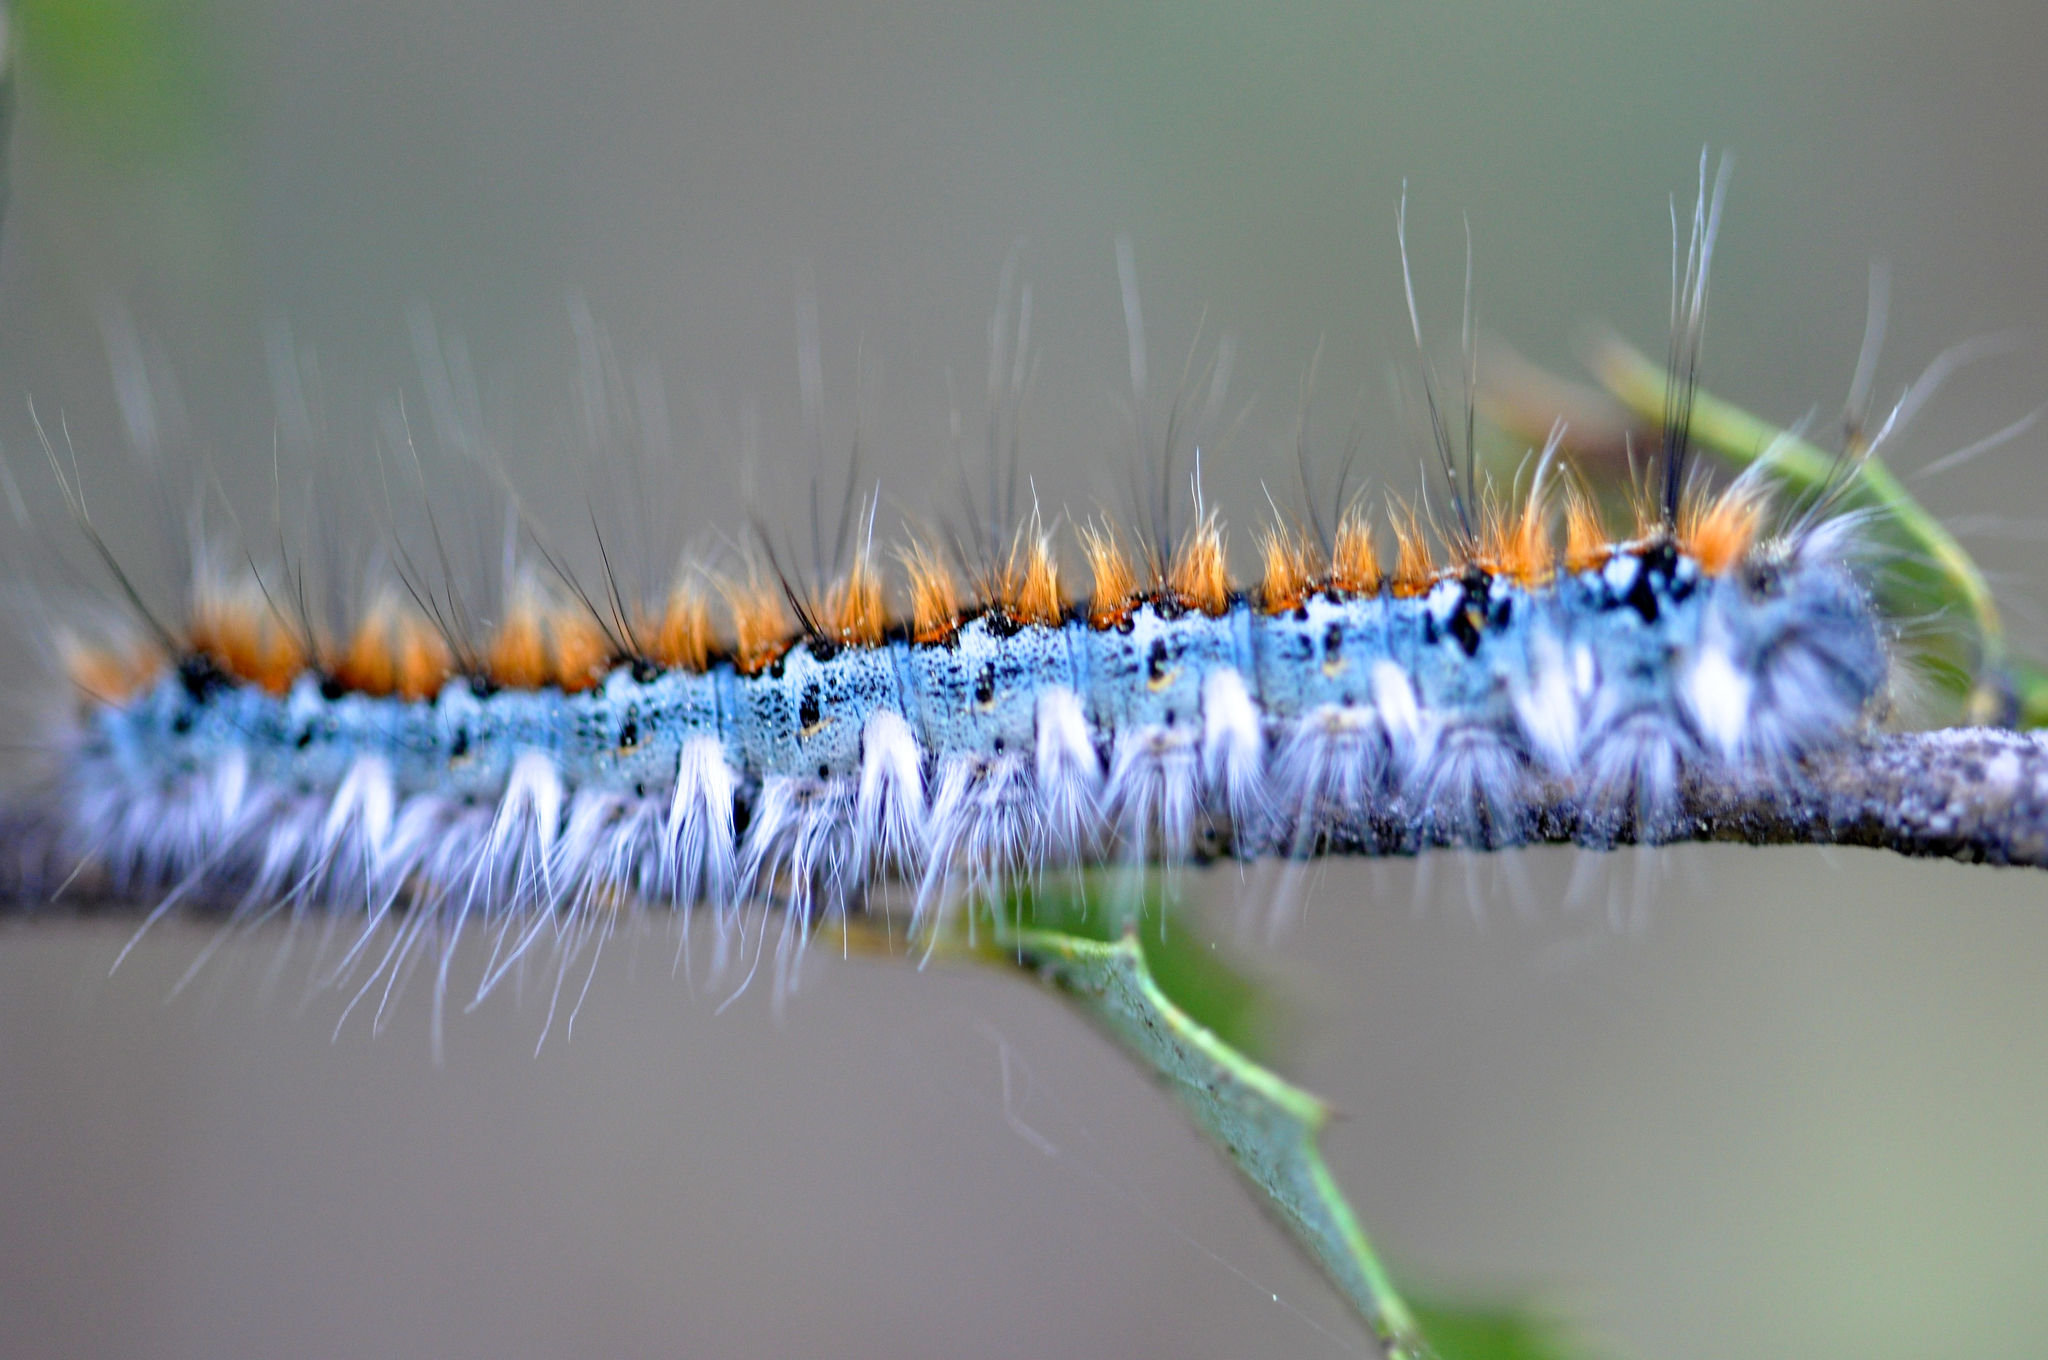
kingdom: Animalia
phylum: Arthropoda
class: Insecta
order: Lepidoptera
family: Lasiocampidae
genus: Malacosoma
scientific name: Malacosoma constricta
